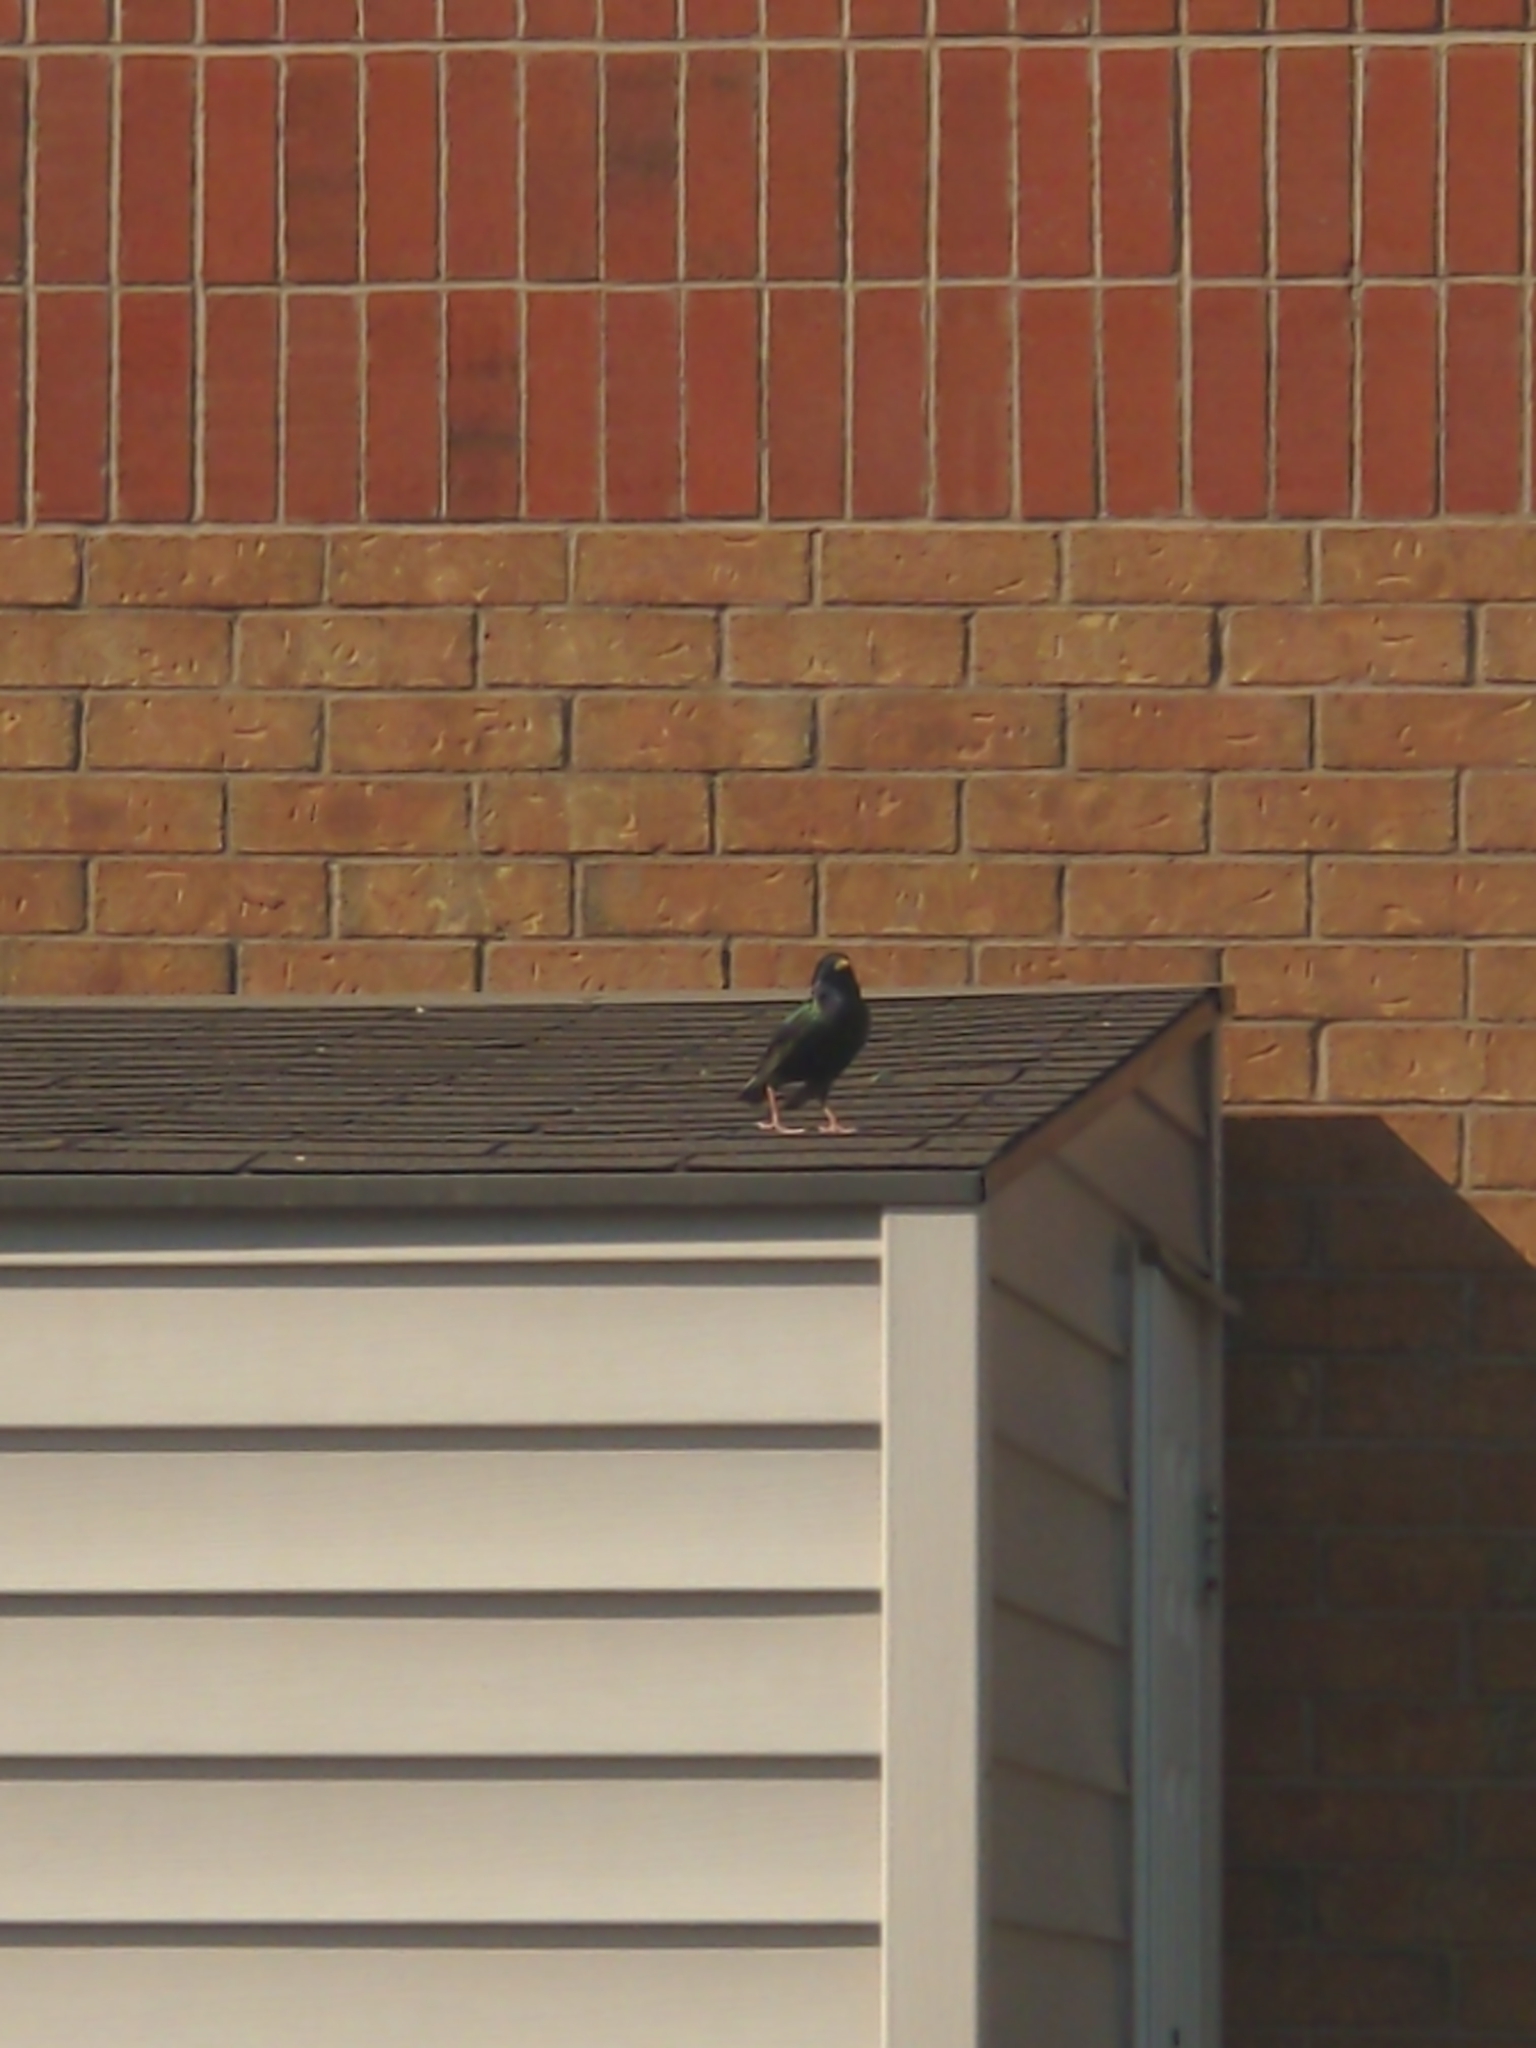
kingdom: Animalia
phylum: Chordata
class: Aves
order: Passeriformes
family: Sturnidae
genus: Sturnus
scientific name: Sturnus vulgaris
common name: Common starling
